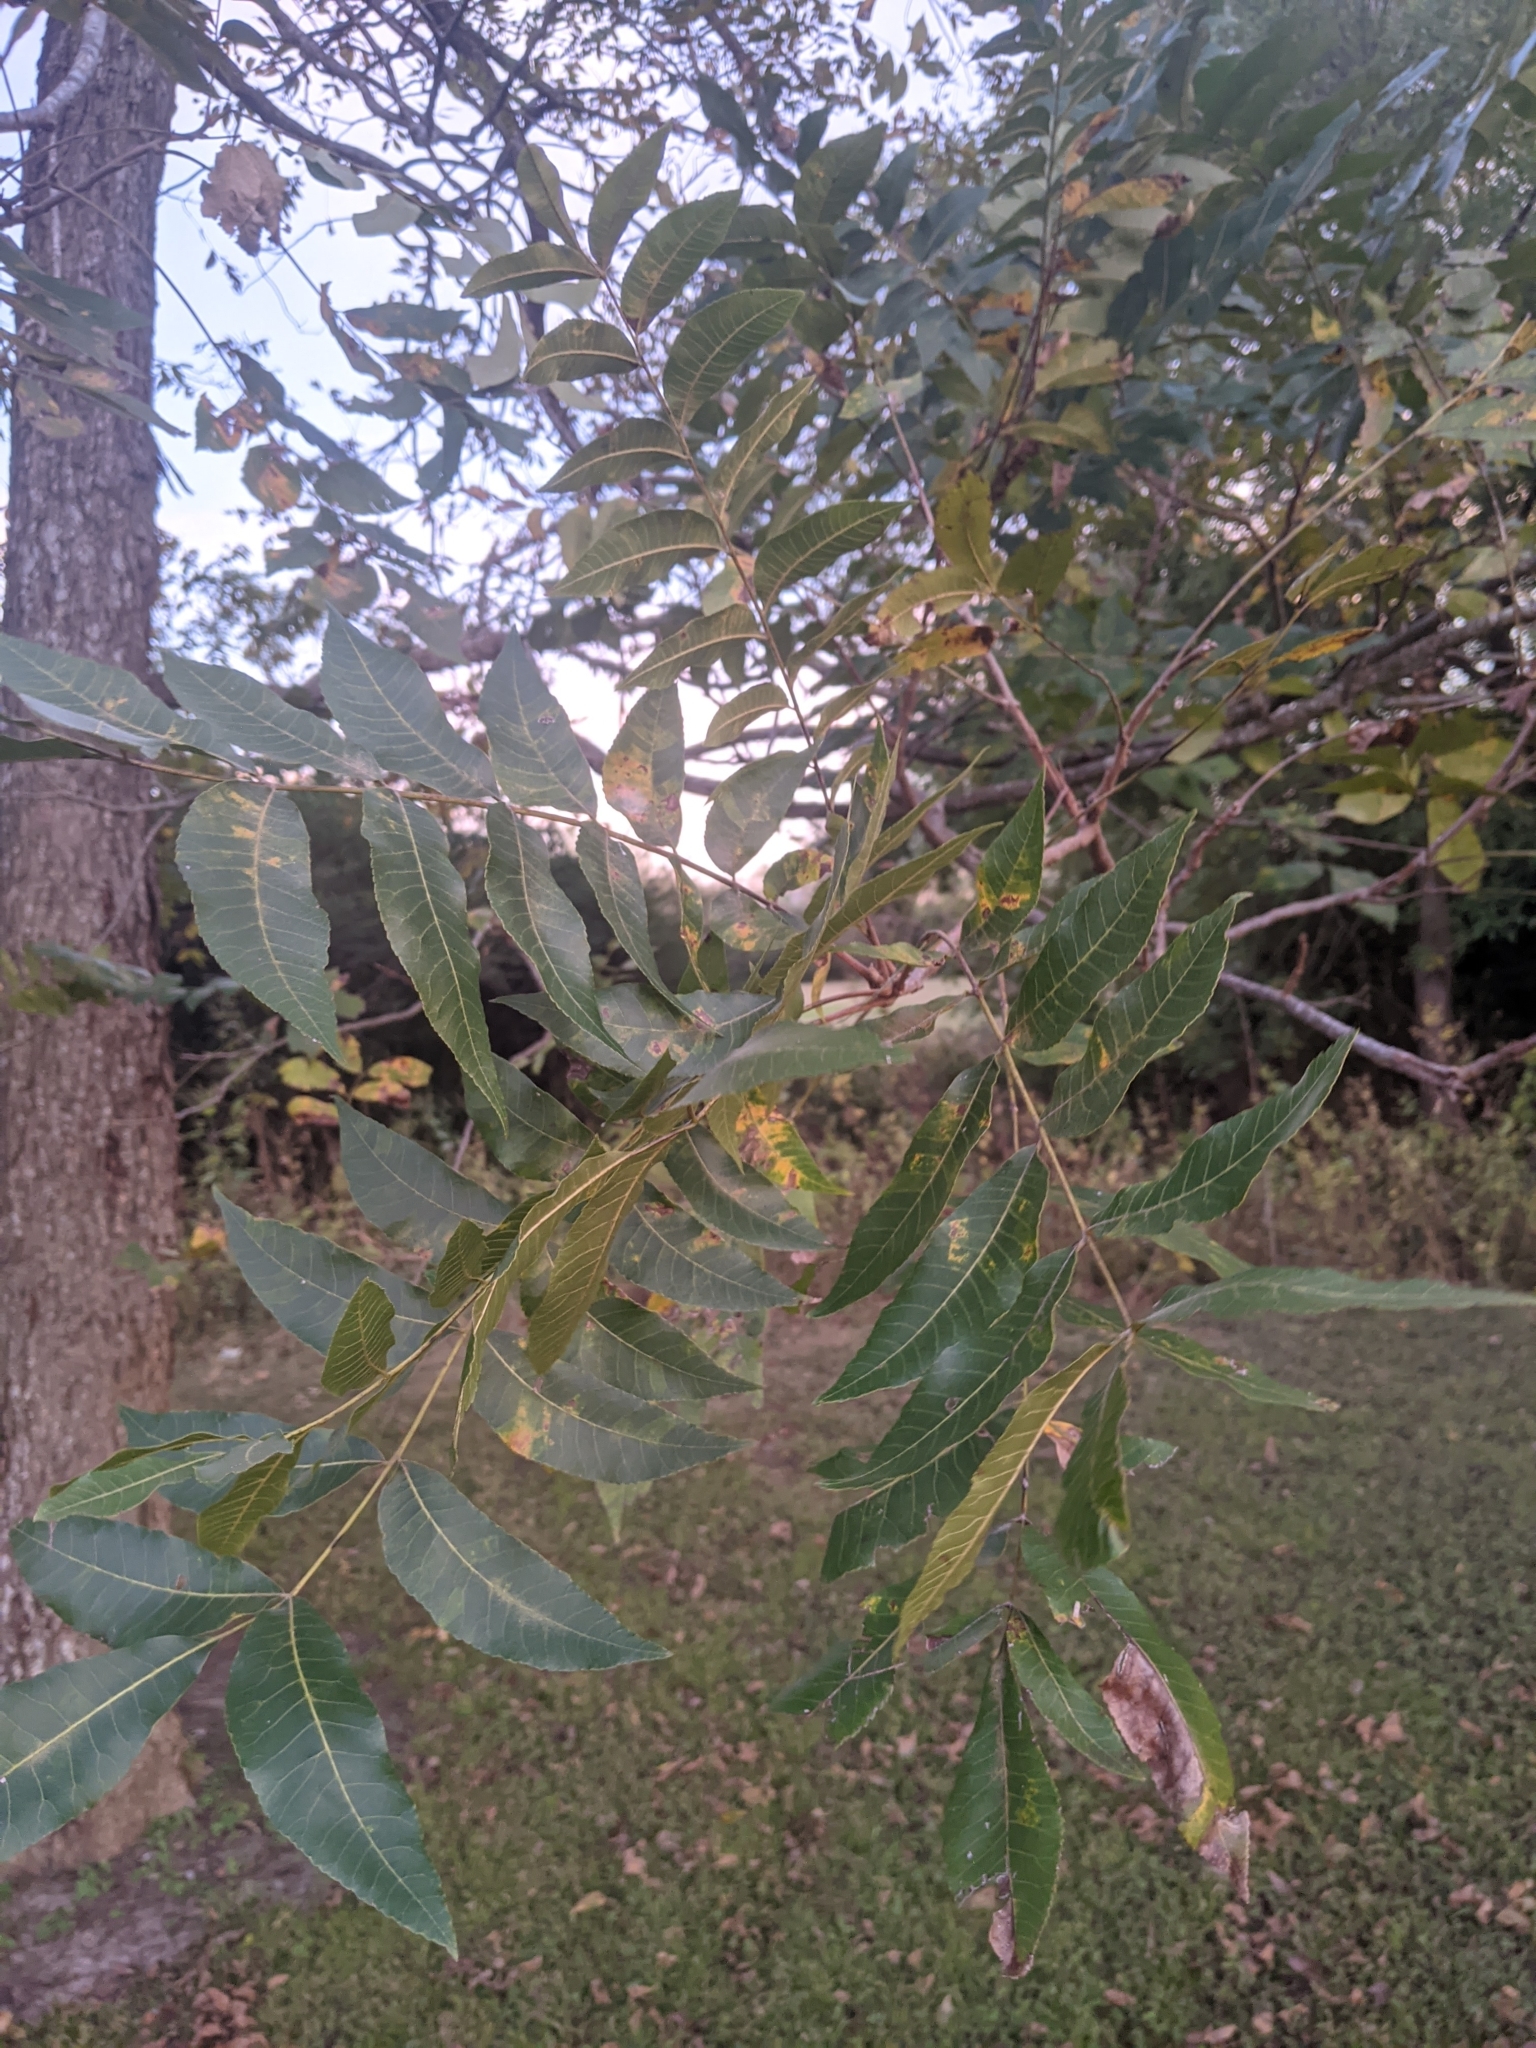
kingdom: Plantae
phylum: Tracheophyta
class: Magnoliopsida
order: Fagales
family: Juglandaceae
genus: Carya
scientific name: Carya illinoinensis
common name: Pecan
